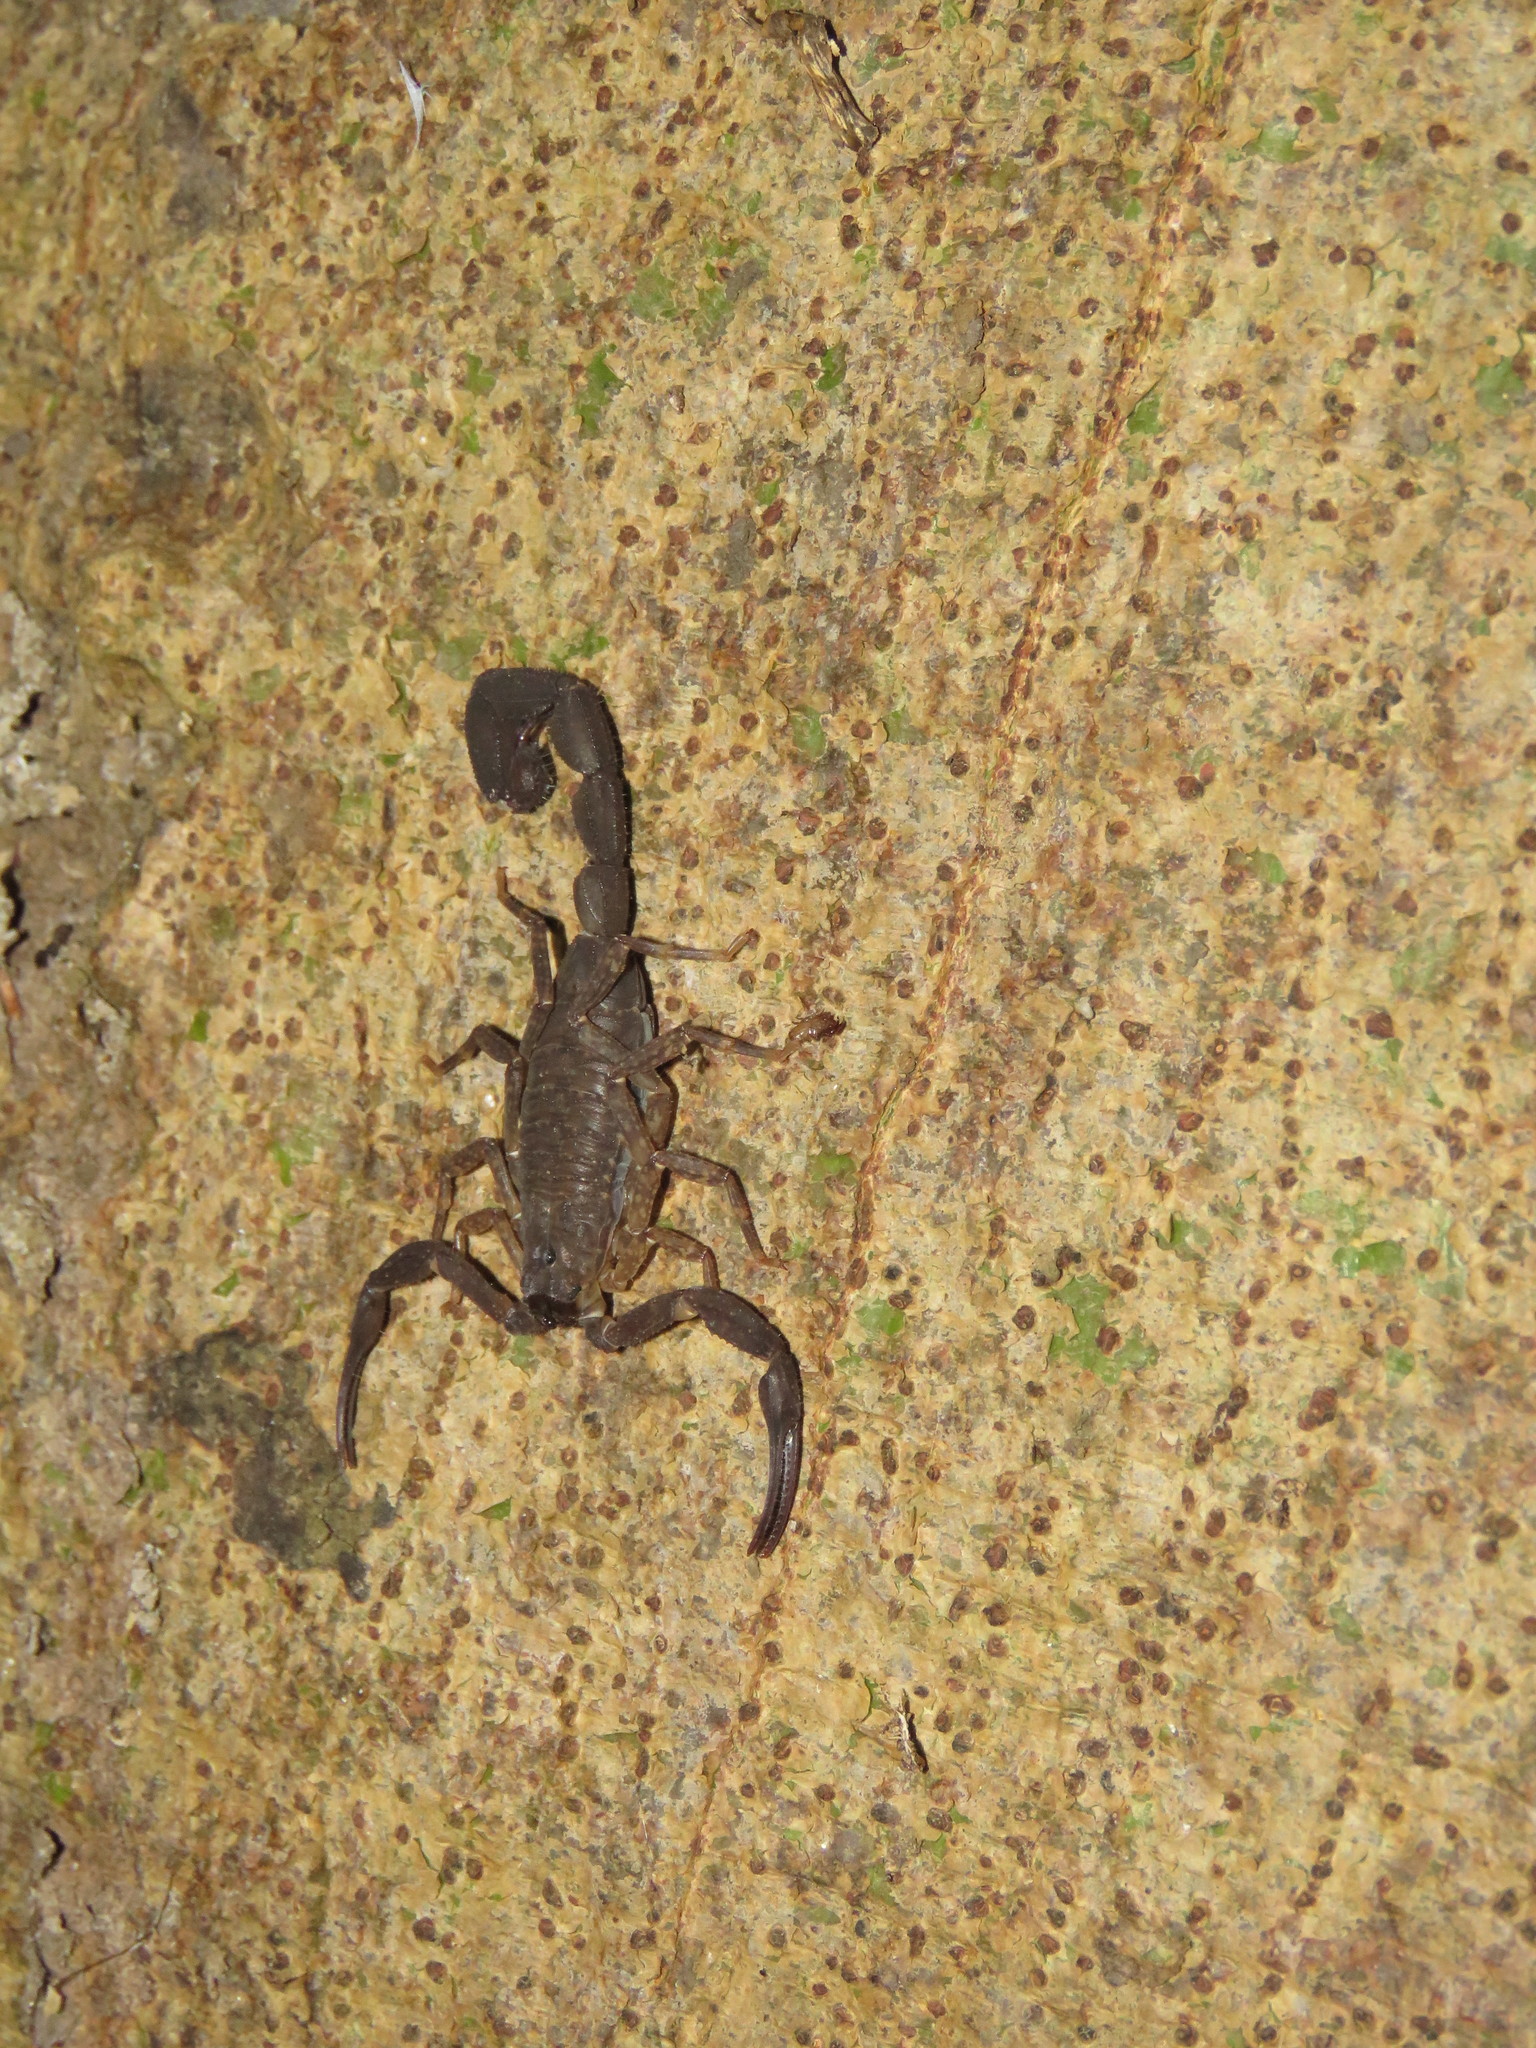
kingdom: Animalia
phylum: Arthropoda
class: Arachnida
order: Scorpiones
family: Buthidae
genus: Tityus
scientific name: Tityus metuendus
